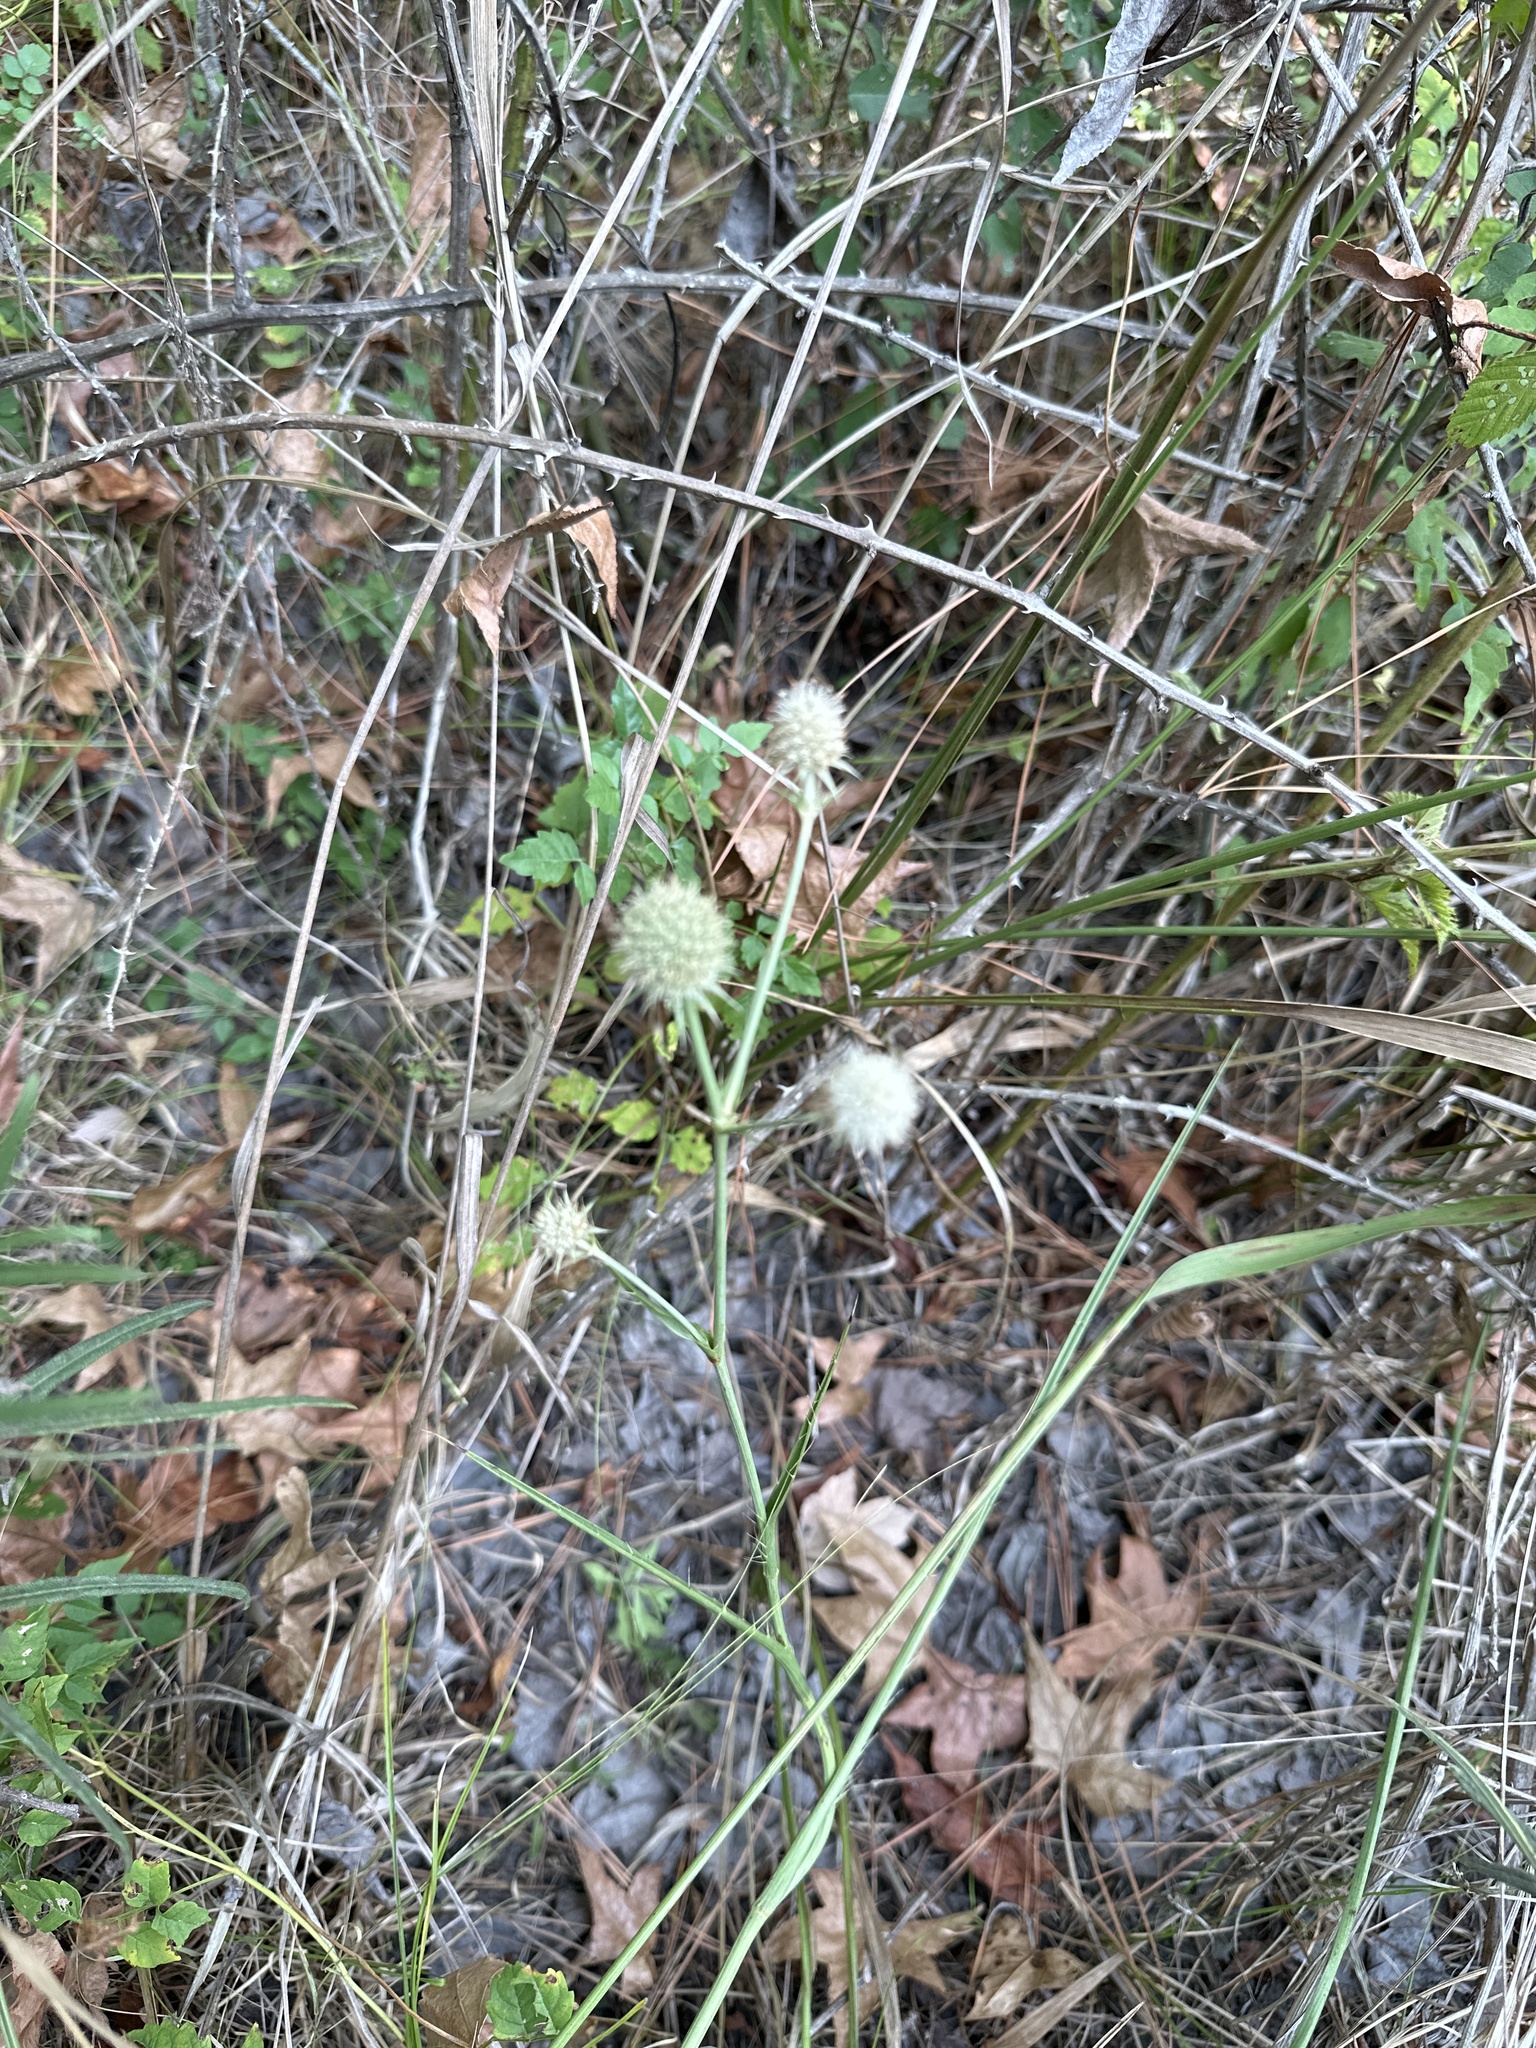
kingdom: Plantae
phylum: Tracheophyta
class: Magnoliopsida
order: Apiales
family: Apiaceae
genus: Eryngium
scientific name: Eryngium yuccifolium
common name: Button eryngo
